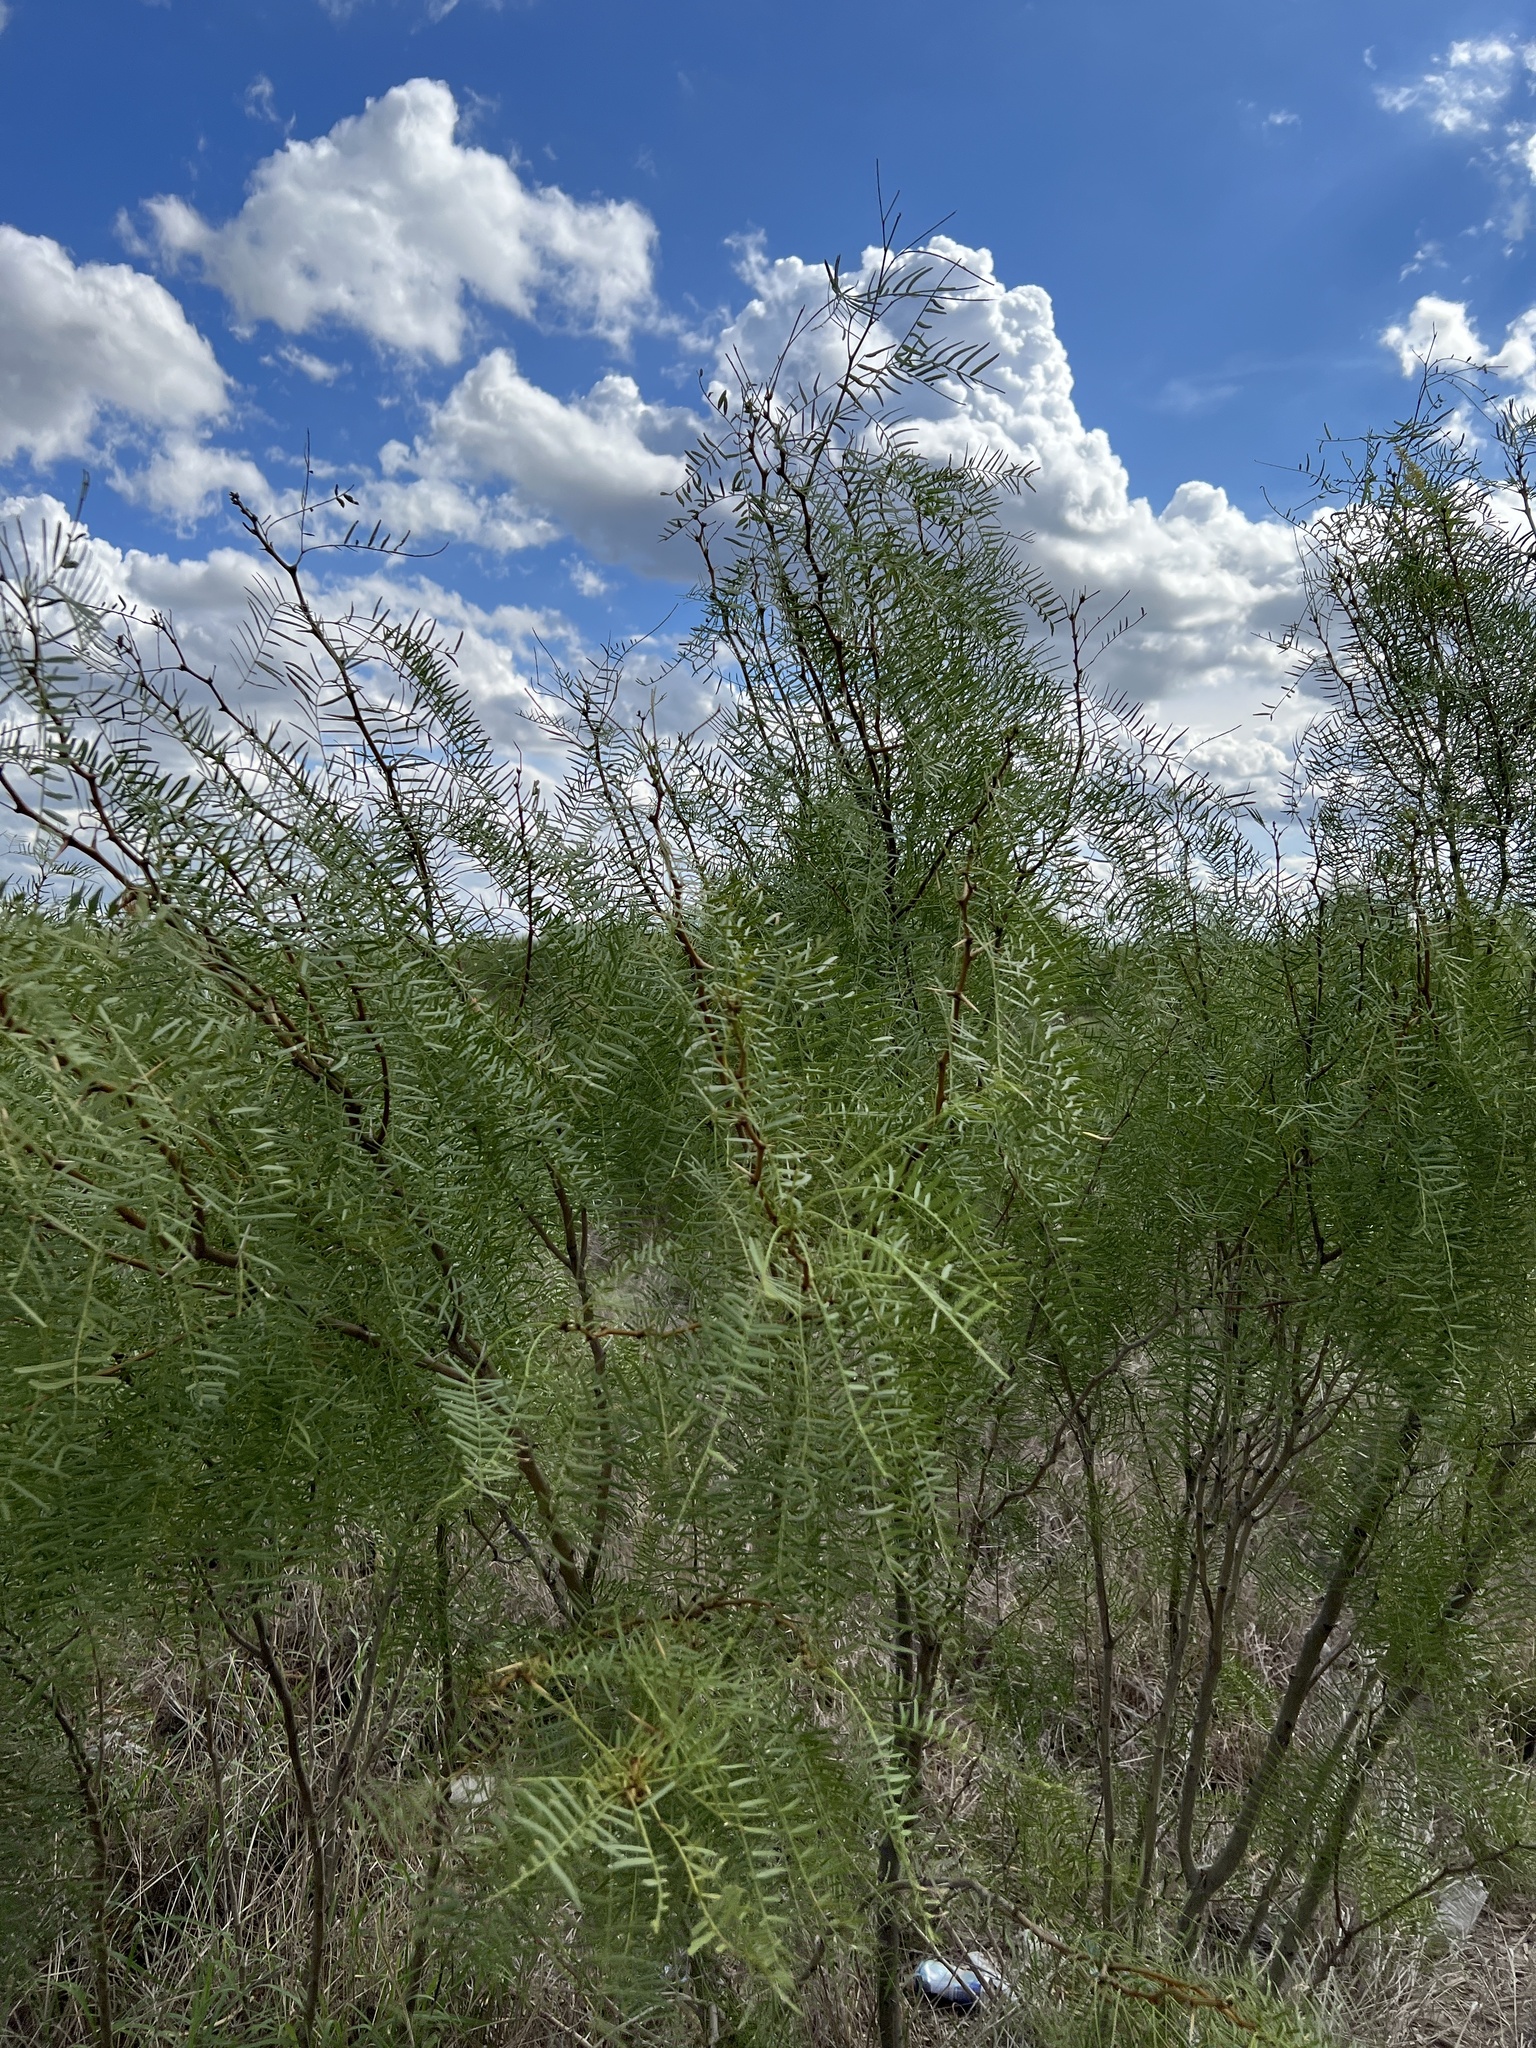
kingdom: Plantae
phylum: Tracheophyta
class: Magnoliopsida
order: Fabales
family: Fabaceae
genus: Prosopis
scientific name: Prosopis glandulosa
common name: Honey mesquite
